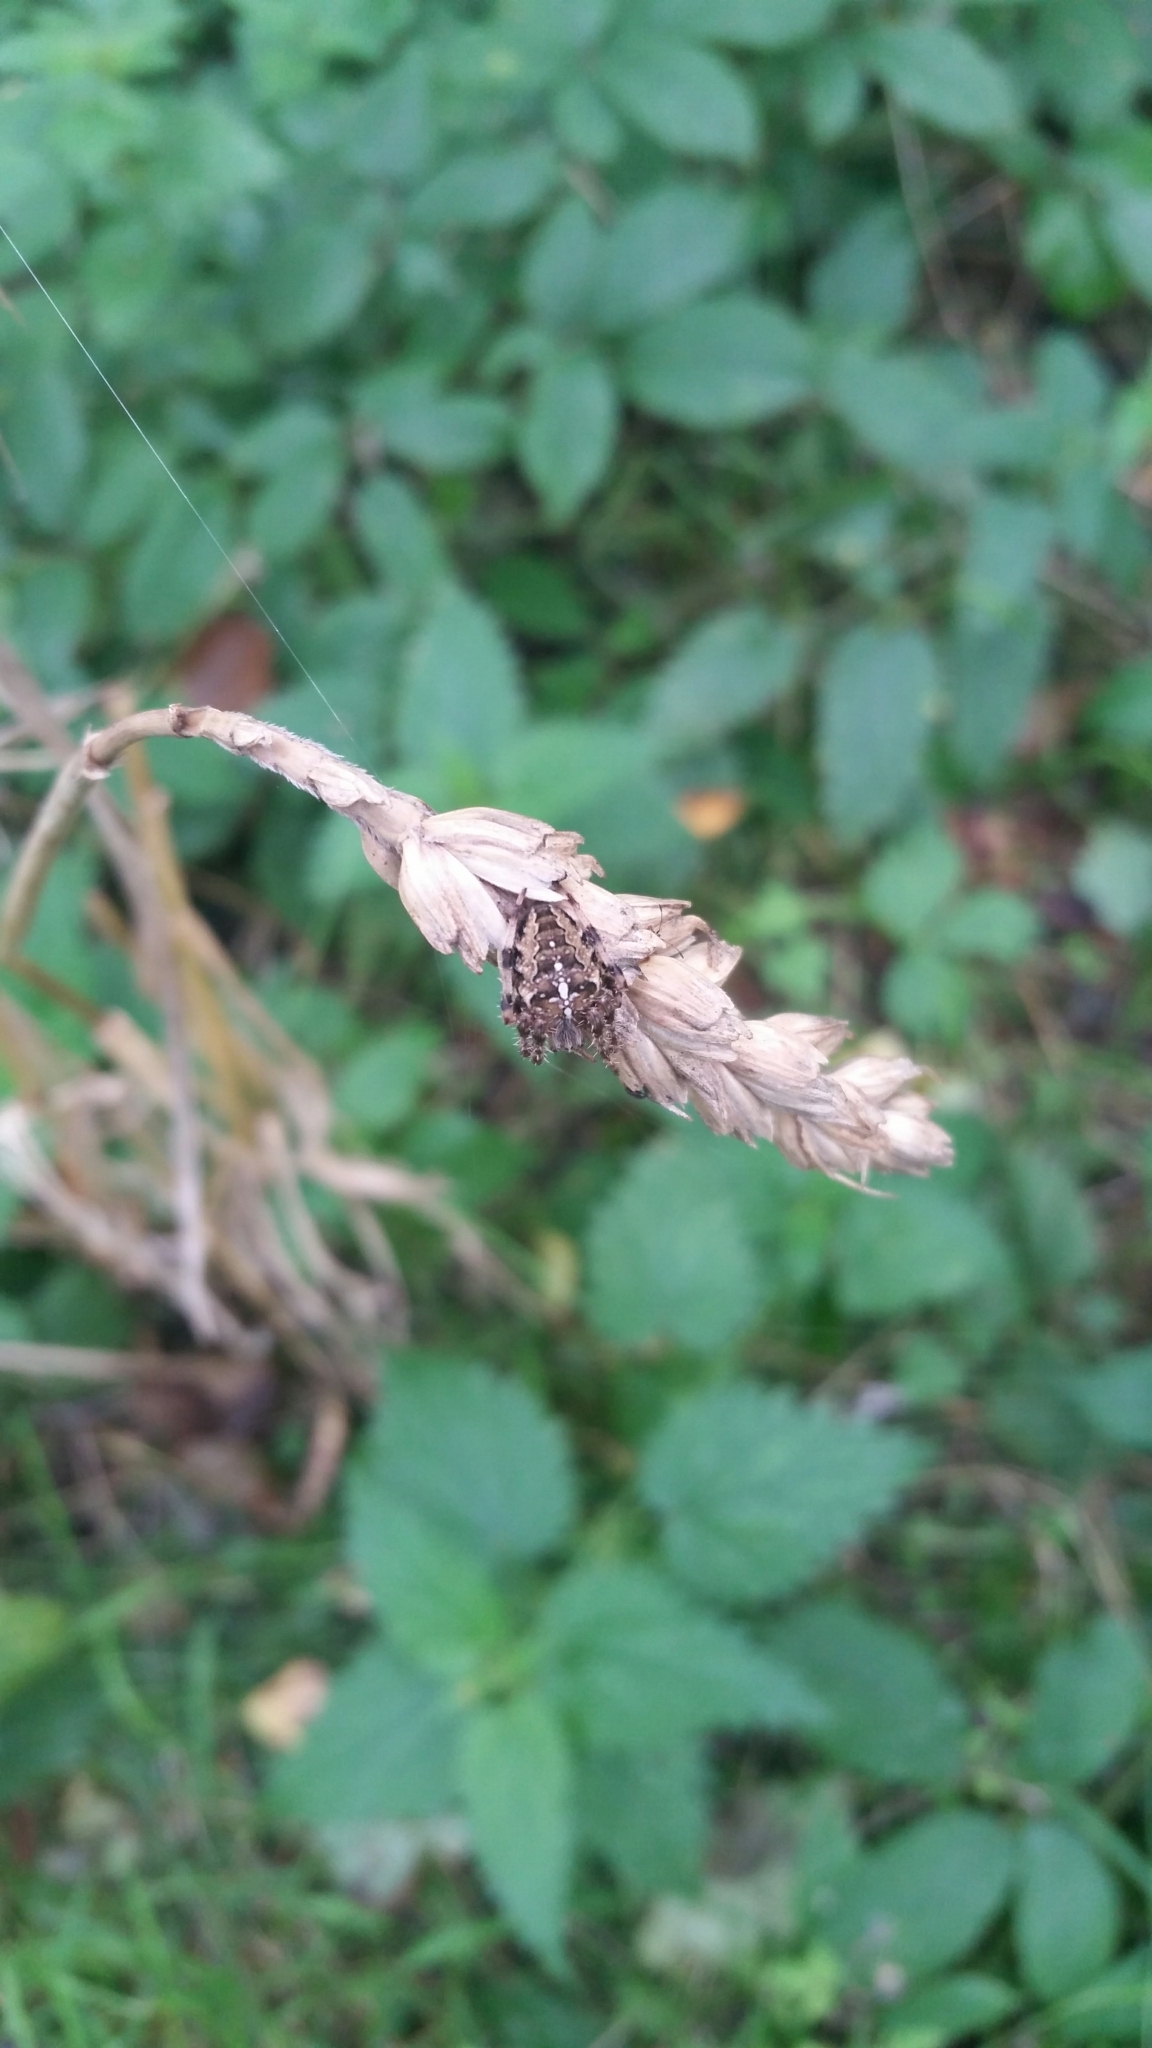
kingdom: Animalia
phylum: Arthropoda
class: Arachnida
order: Araneae
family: Araneidae
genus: Araneus
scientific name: Araneus diadematus
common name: Cross orbweaver
